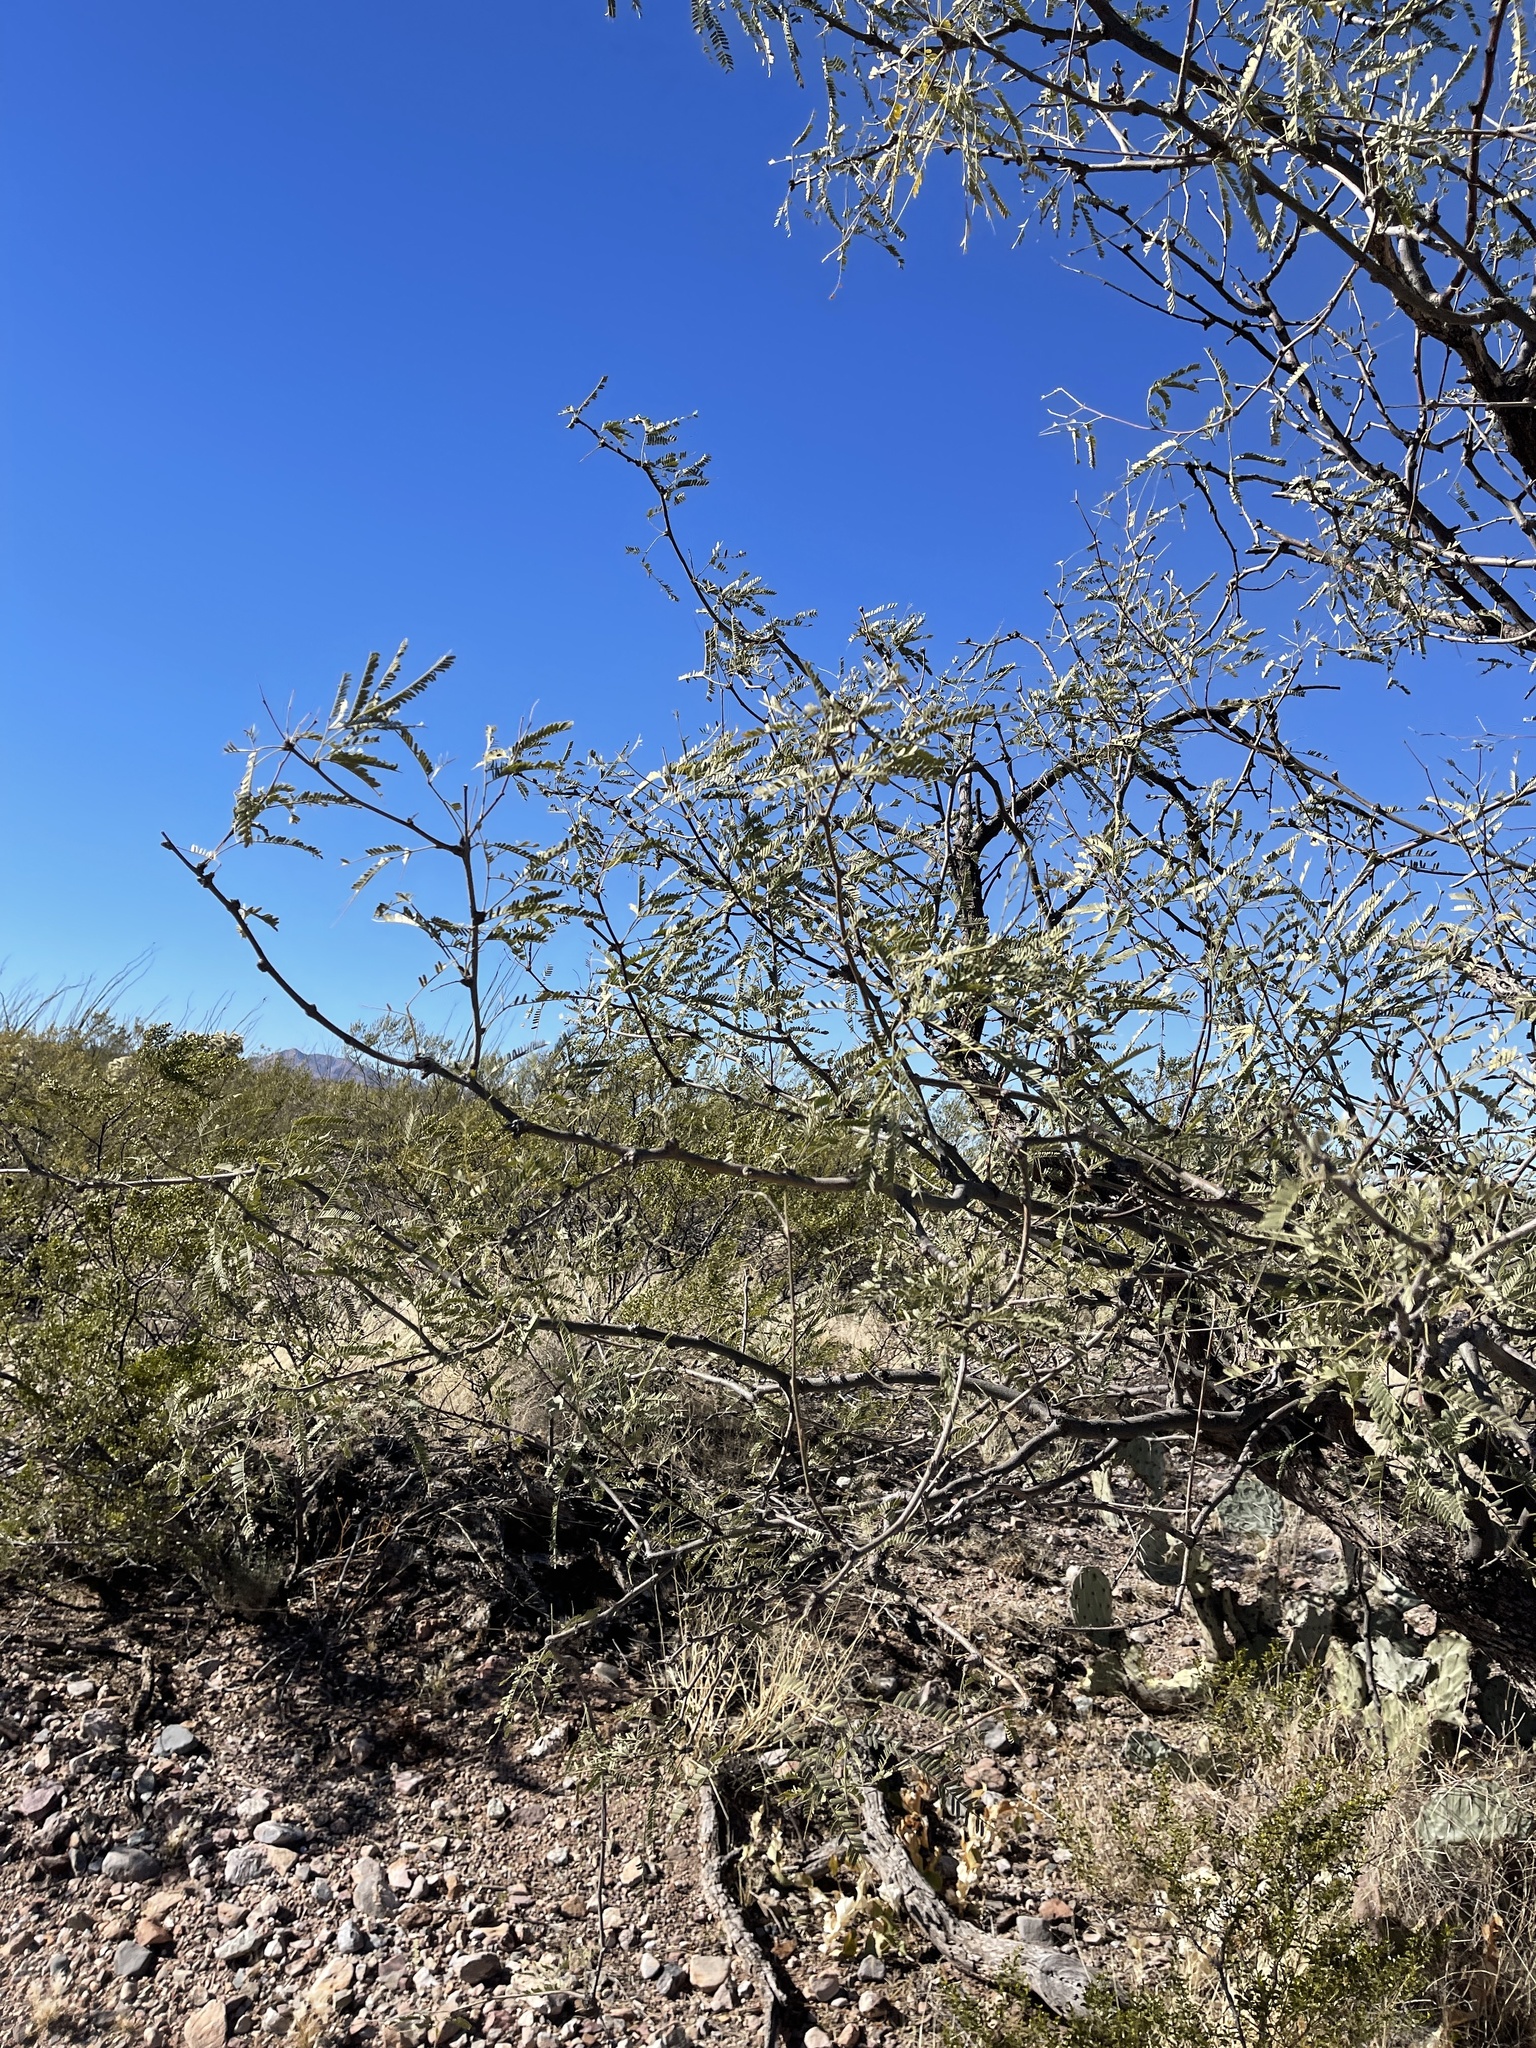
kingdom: Plantae
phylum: Tracheophyta
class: Magnoliopsida
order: Fabales
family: Fabaceae
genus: Prosopis
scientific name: Prosopis velutina
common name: Velvet mesquite
